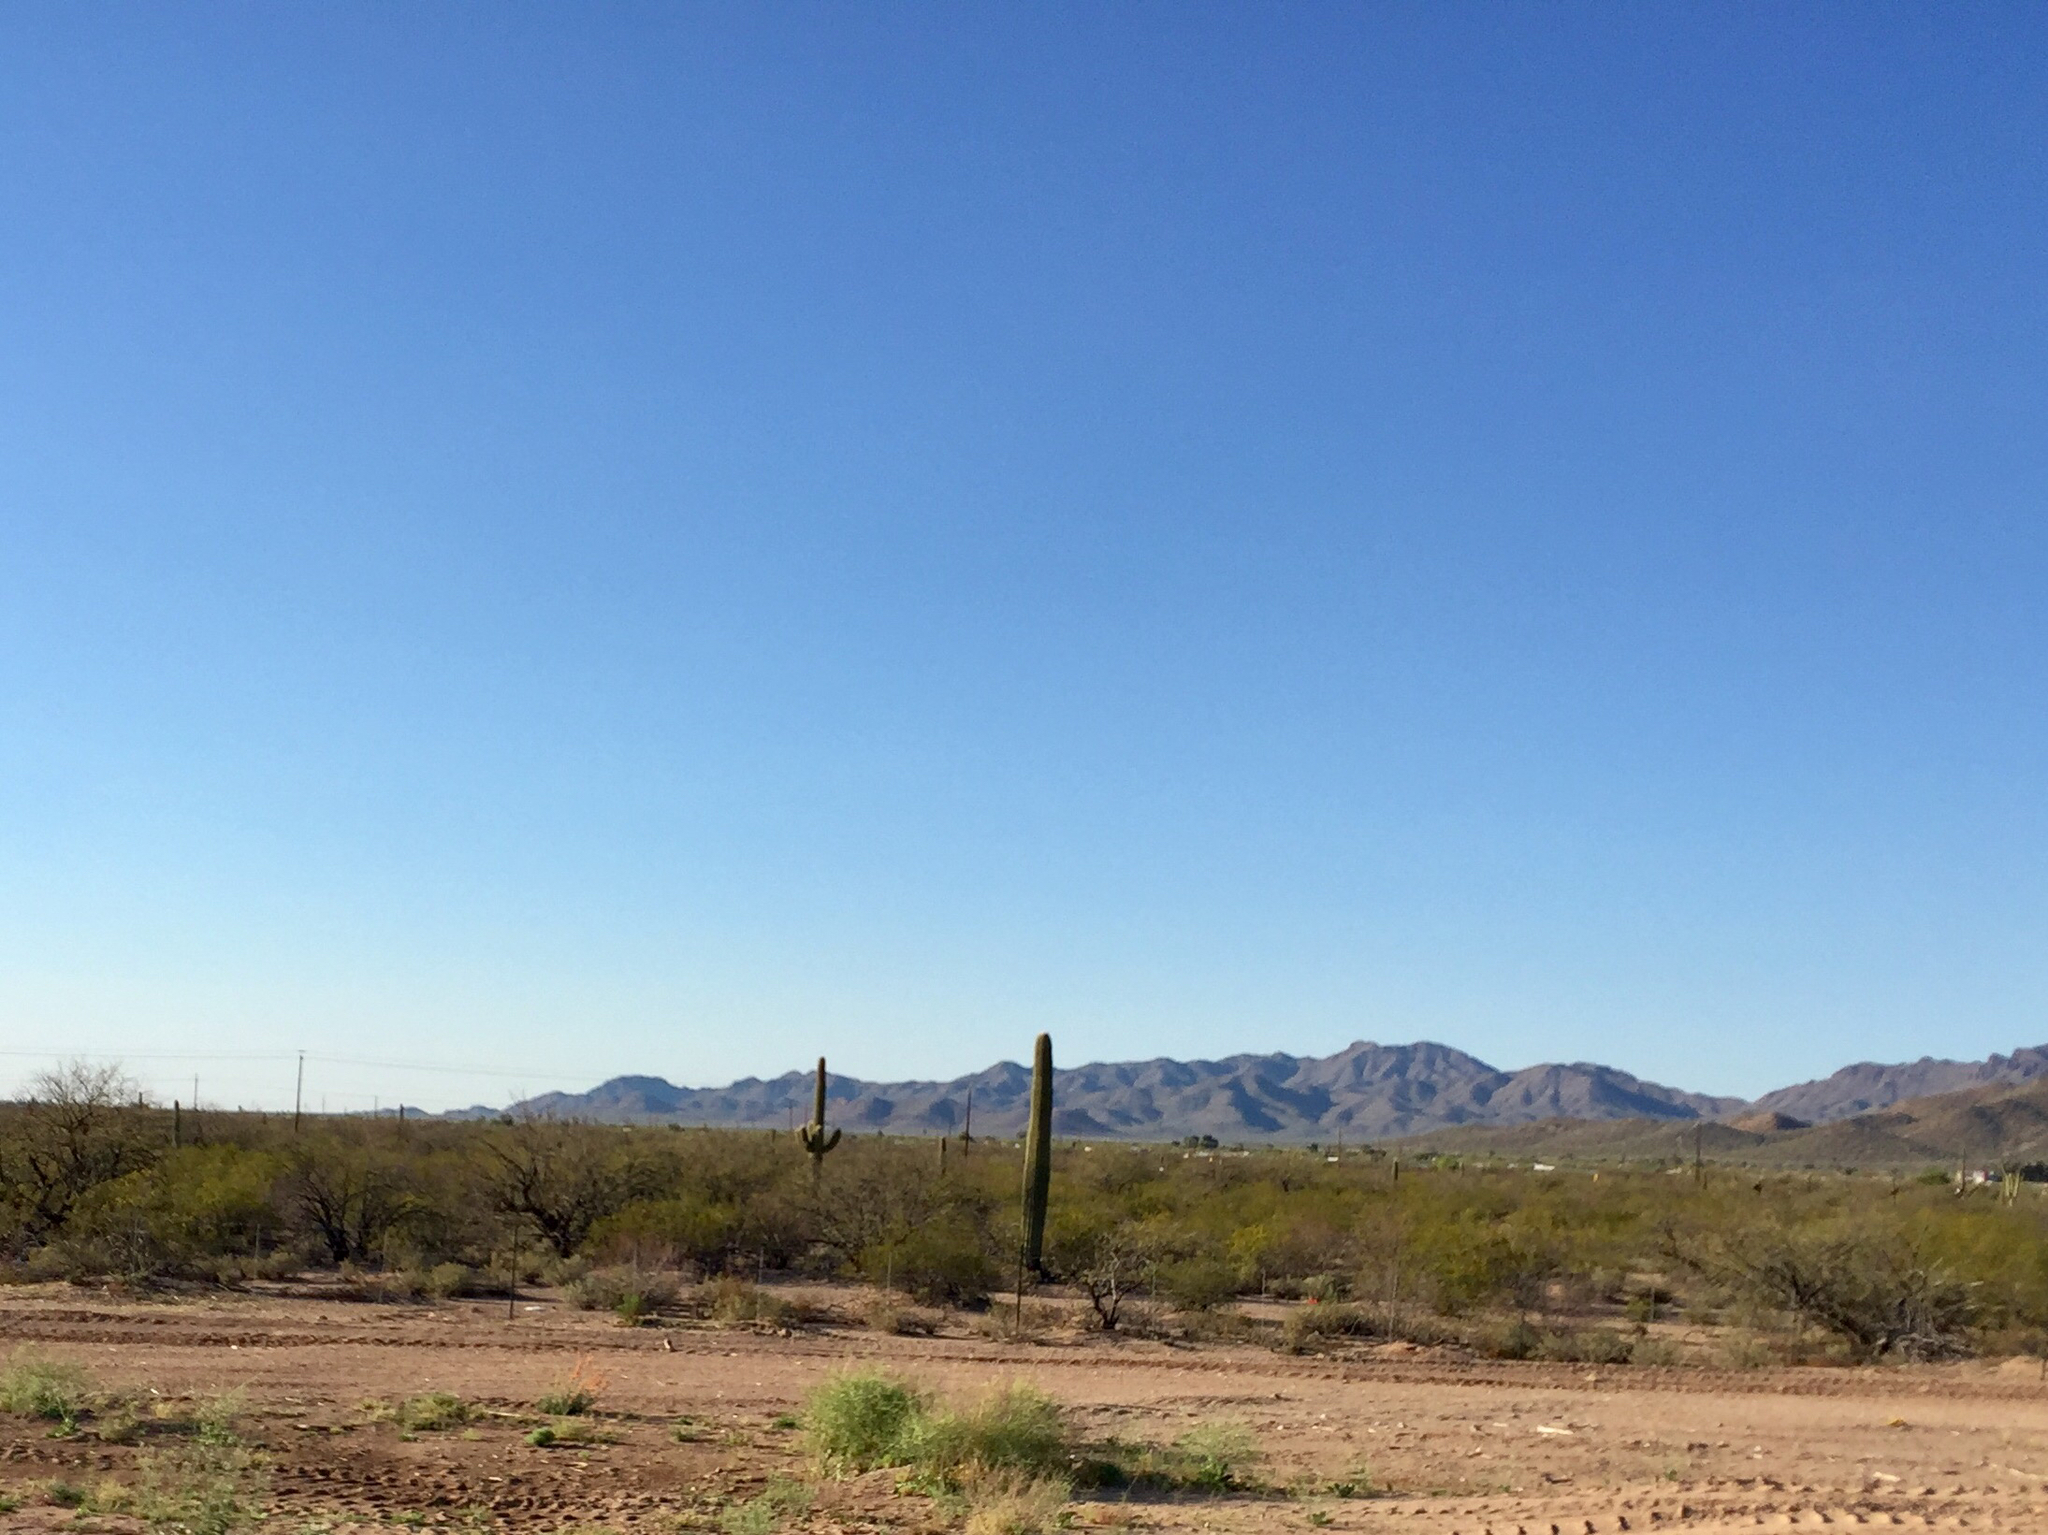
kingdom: Plantae
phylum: Tracheophyta
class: Magnoliopsida
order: Caryophyllales
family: Cactaceae
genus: Carnegiea
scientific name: Carnegiea gigantea
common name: Saguaro
